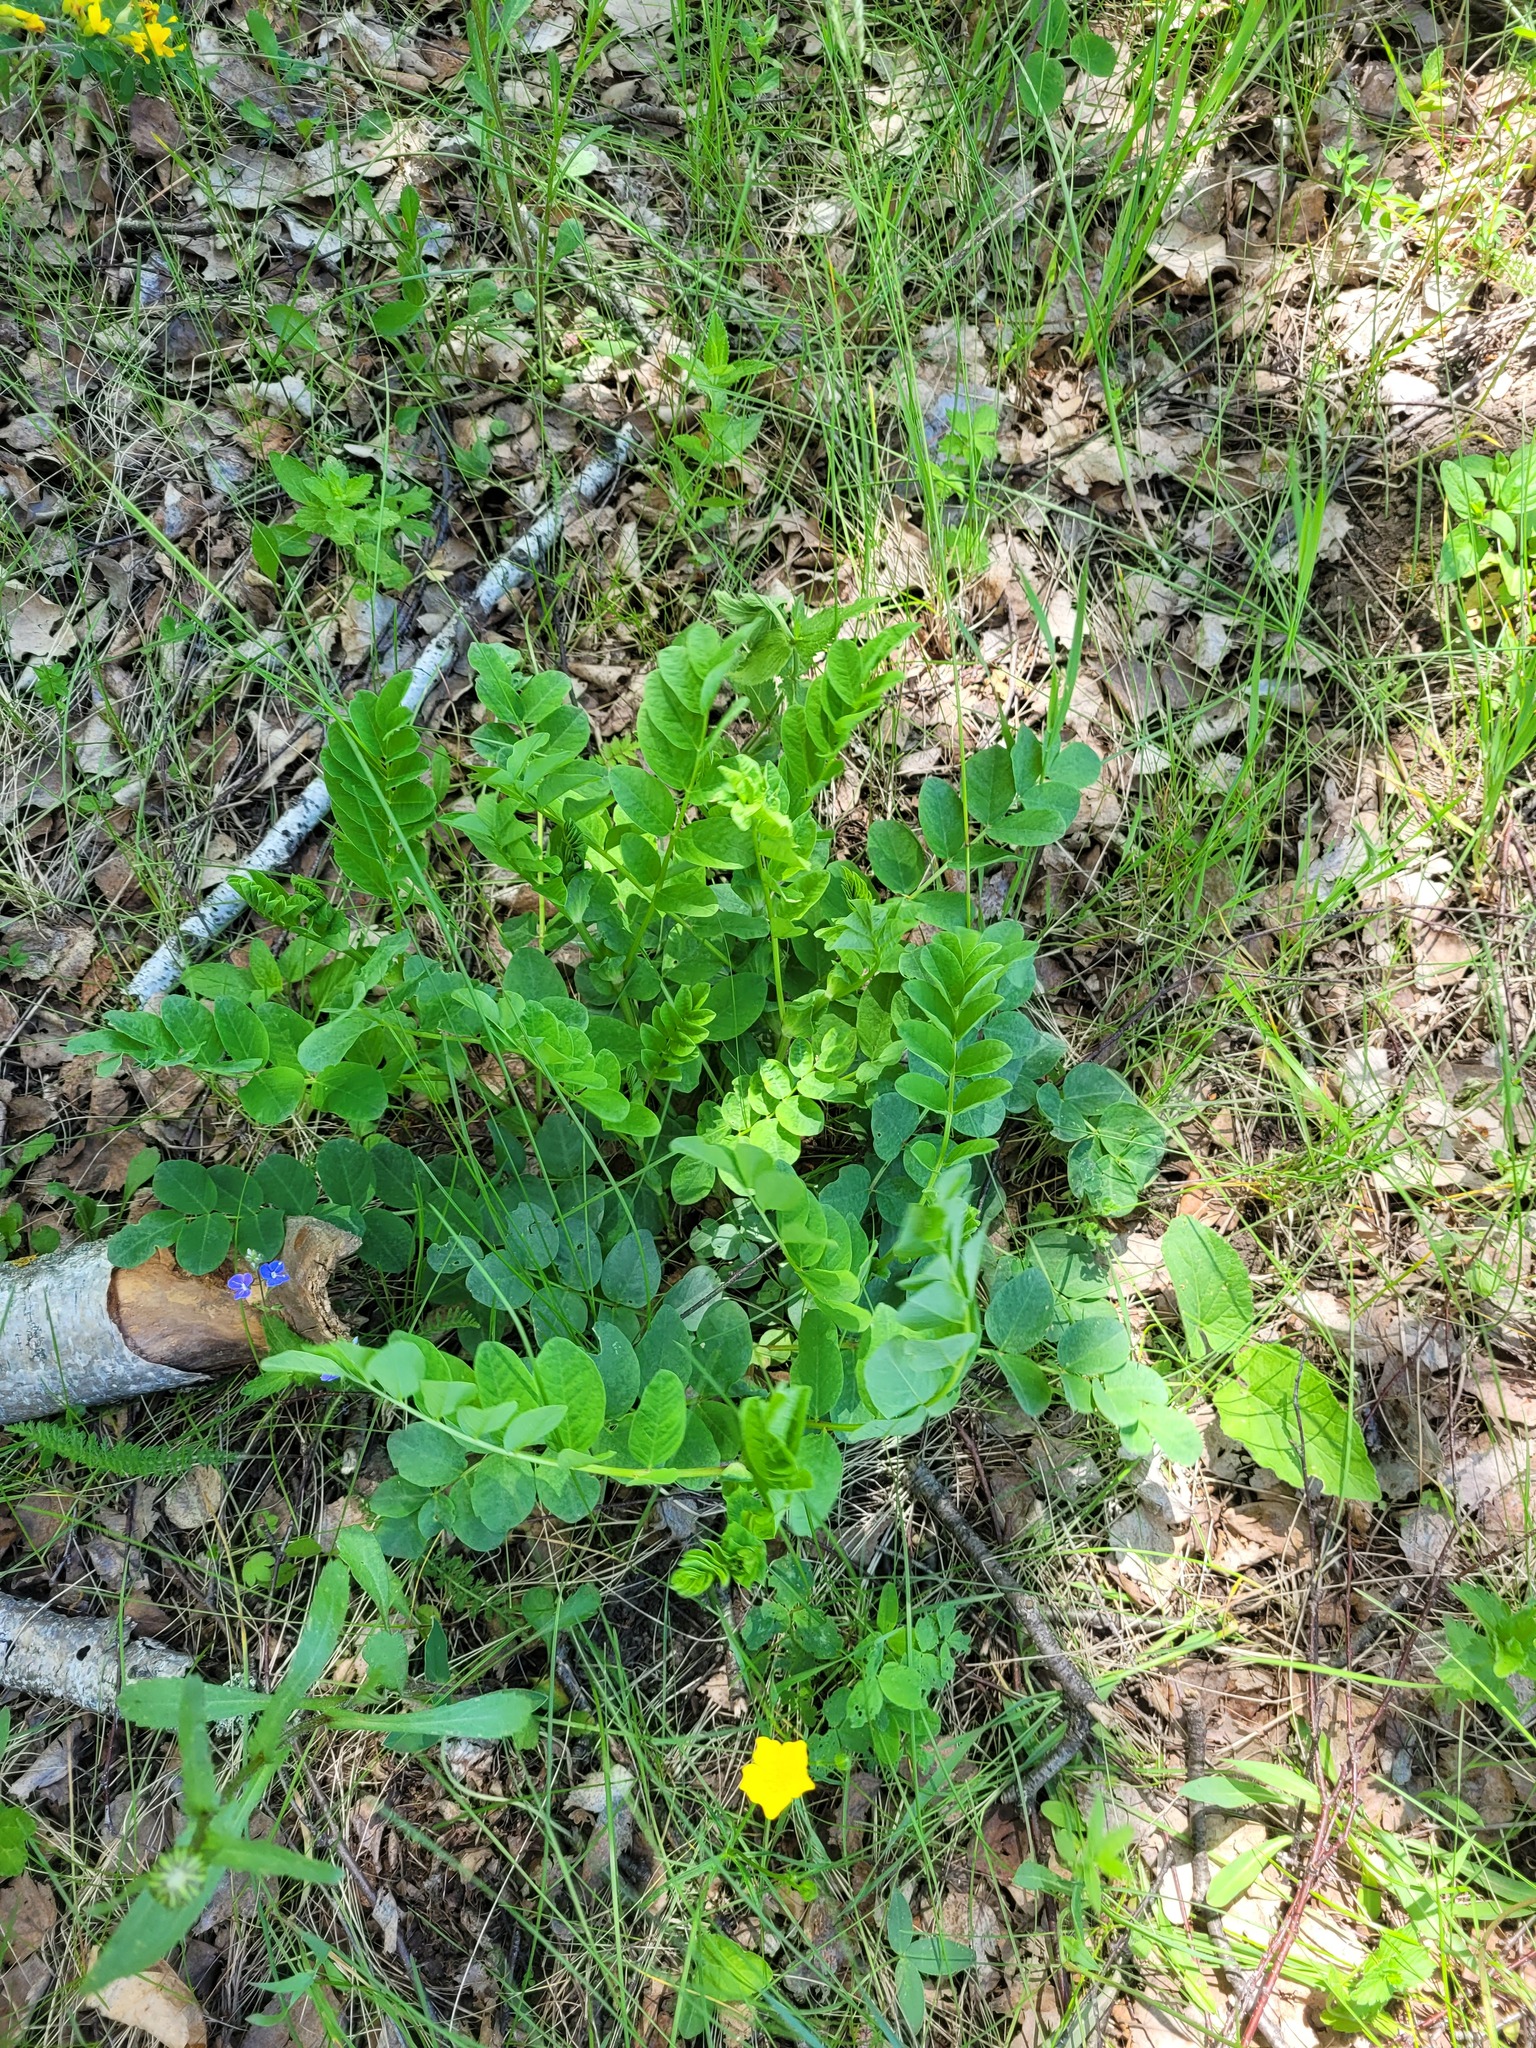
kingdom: Plantae
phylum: Tracheophyta
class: Magnoliopsida
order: Fabales
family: Fabaceae
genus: Astragalus
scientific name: Astragalus glycyphyllos
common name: Wild liquorice
